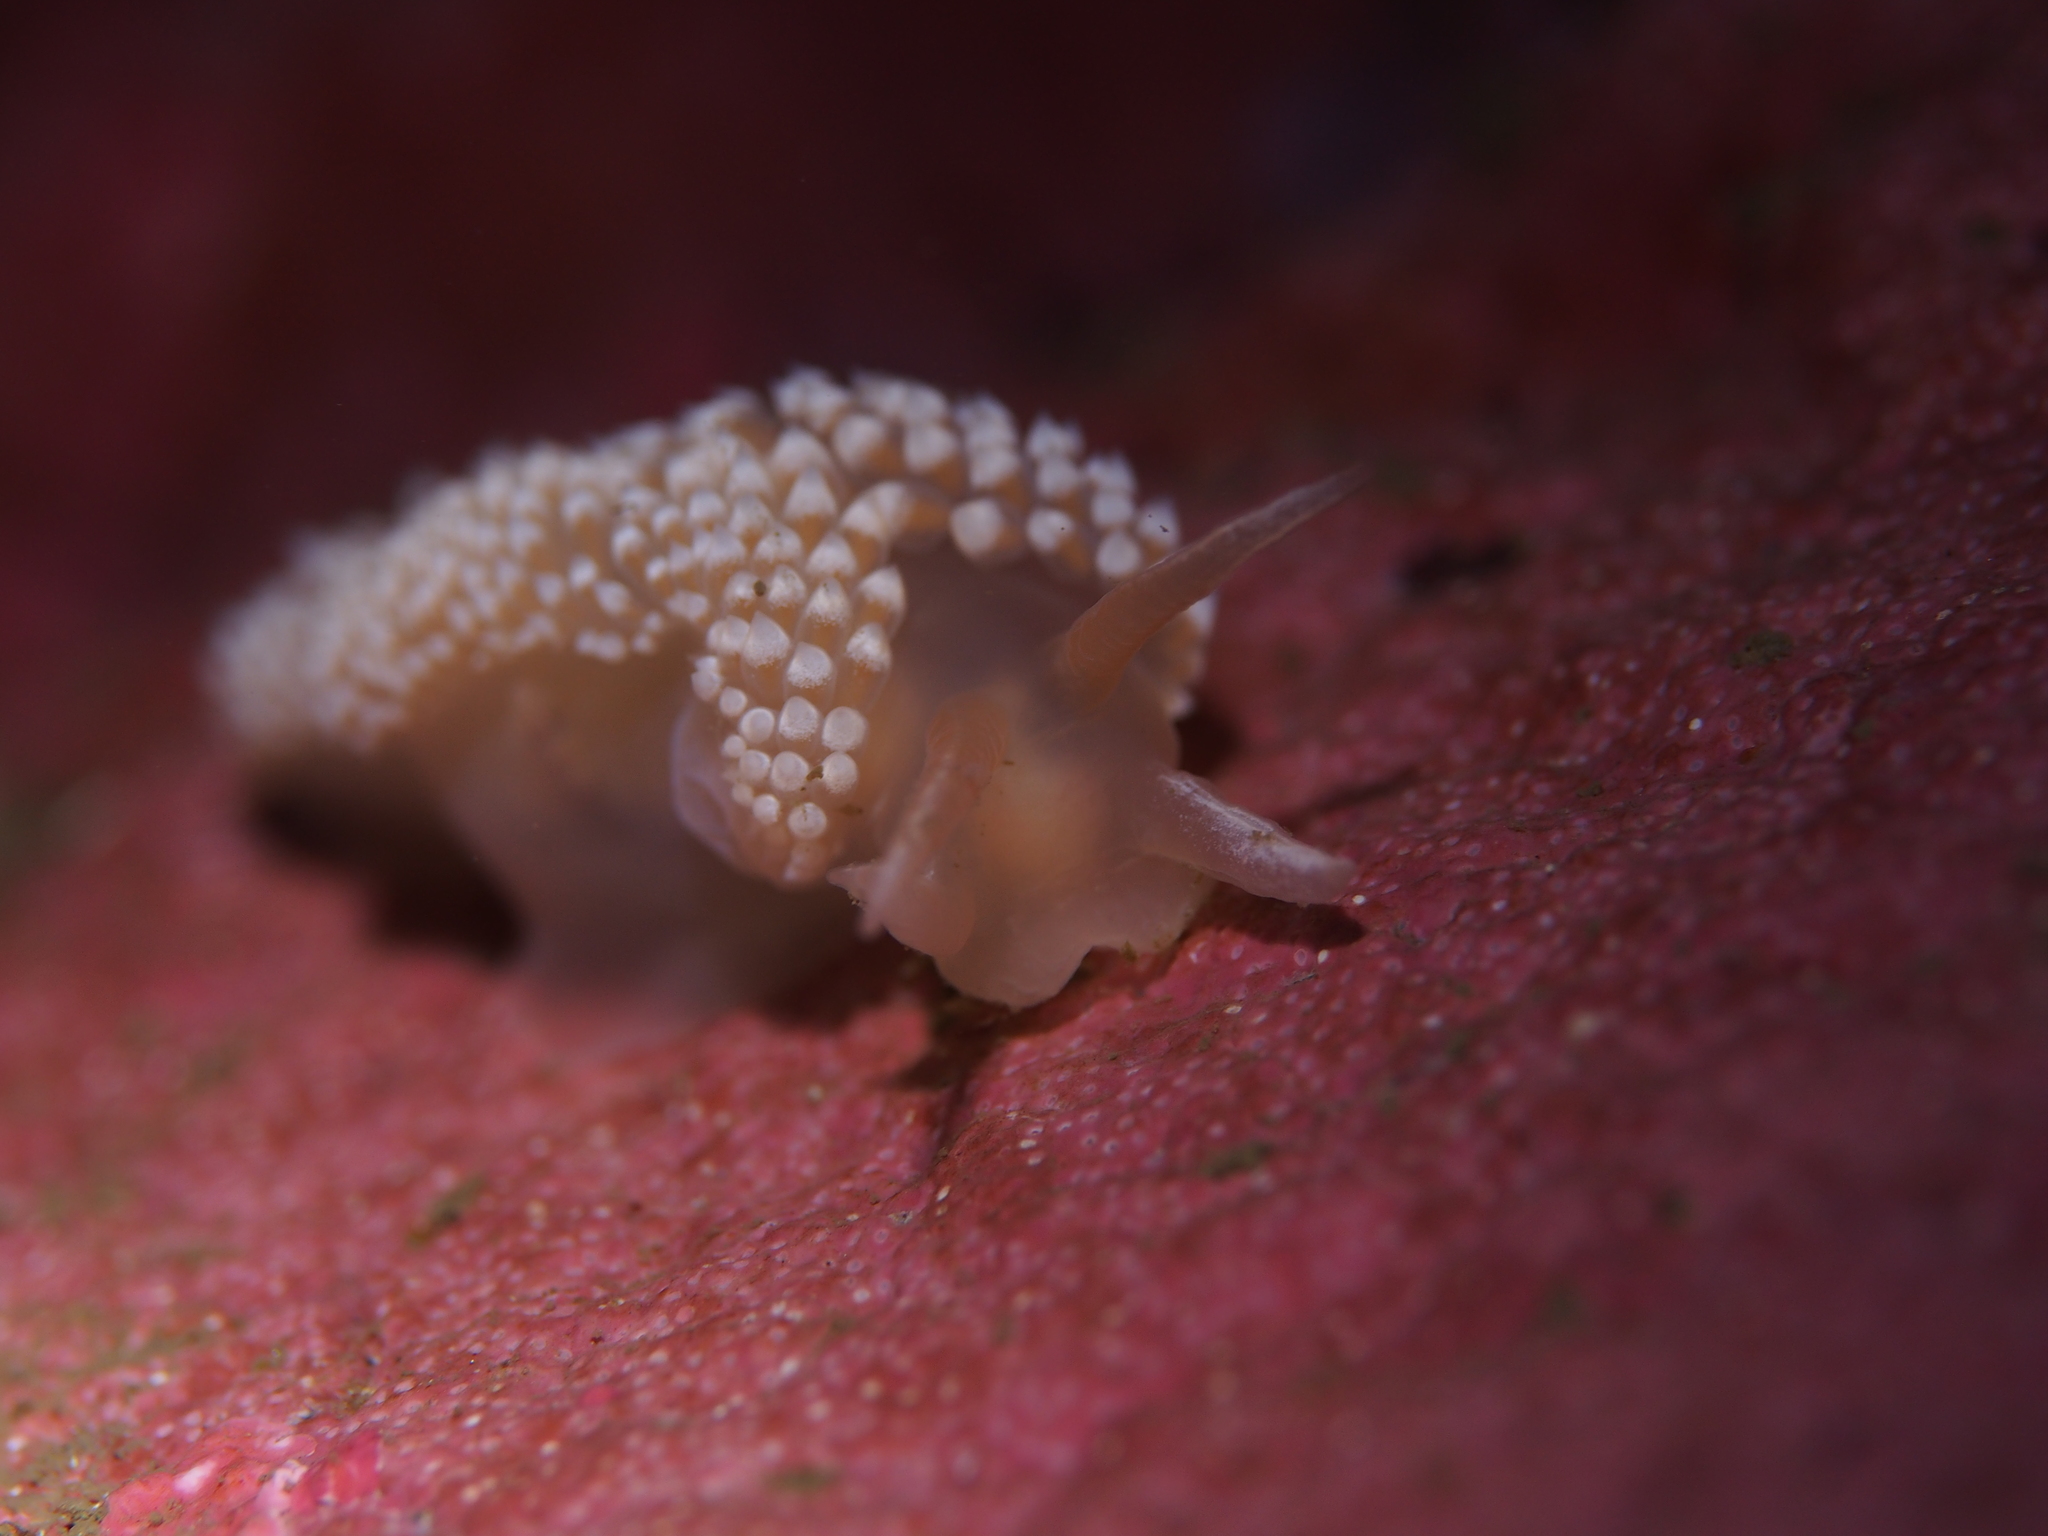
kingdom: Animalia
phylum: Mollusca
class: Gastropoda
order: Nudibranchia
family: Coryphellidae
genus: Coryphella
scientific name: Coryphella verrucosa
